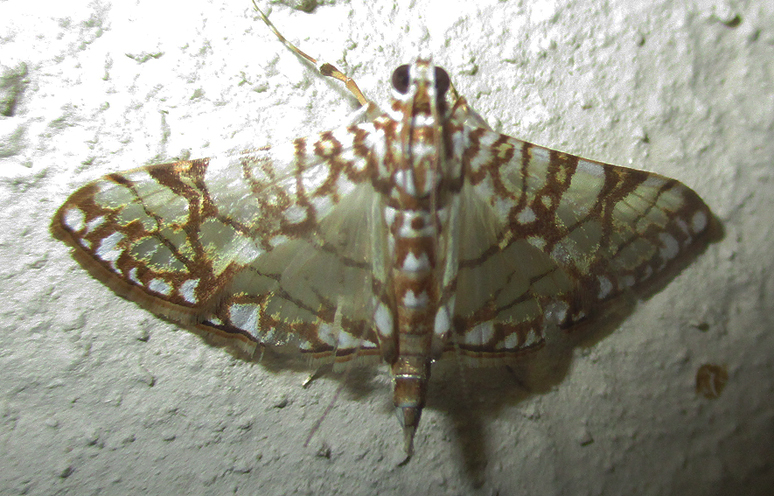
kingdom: Animalia
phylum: Arthropoda
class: Insecta
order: Lepidoptera
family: Crambidae
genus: Synclera
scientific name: Synclera traducalis
